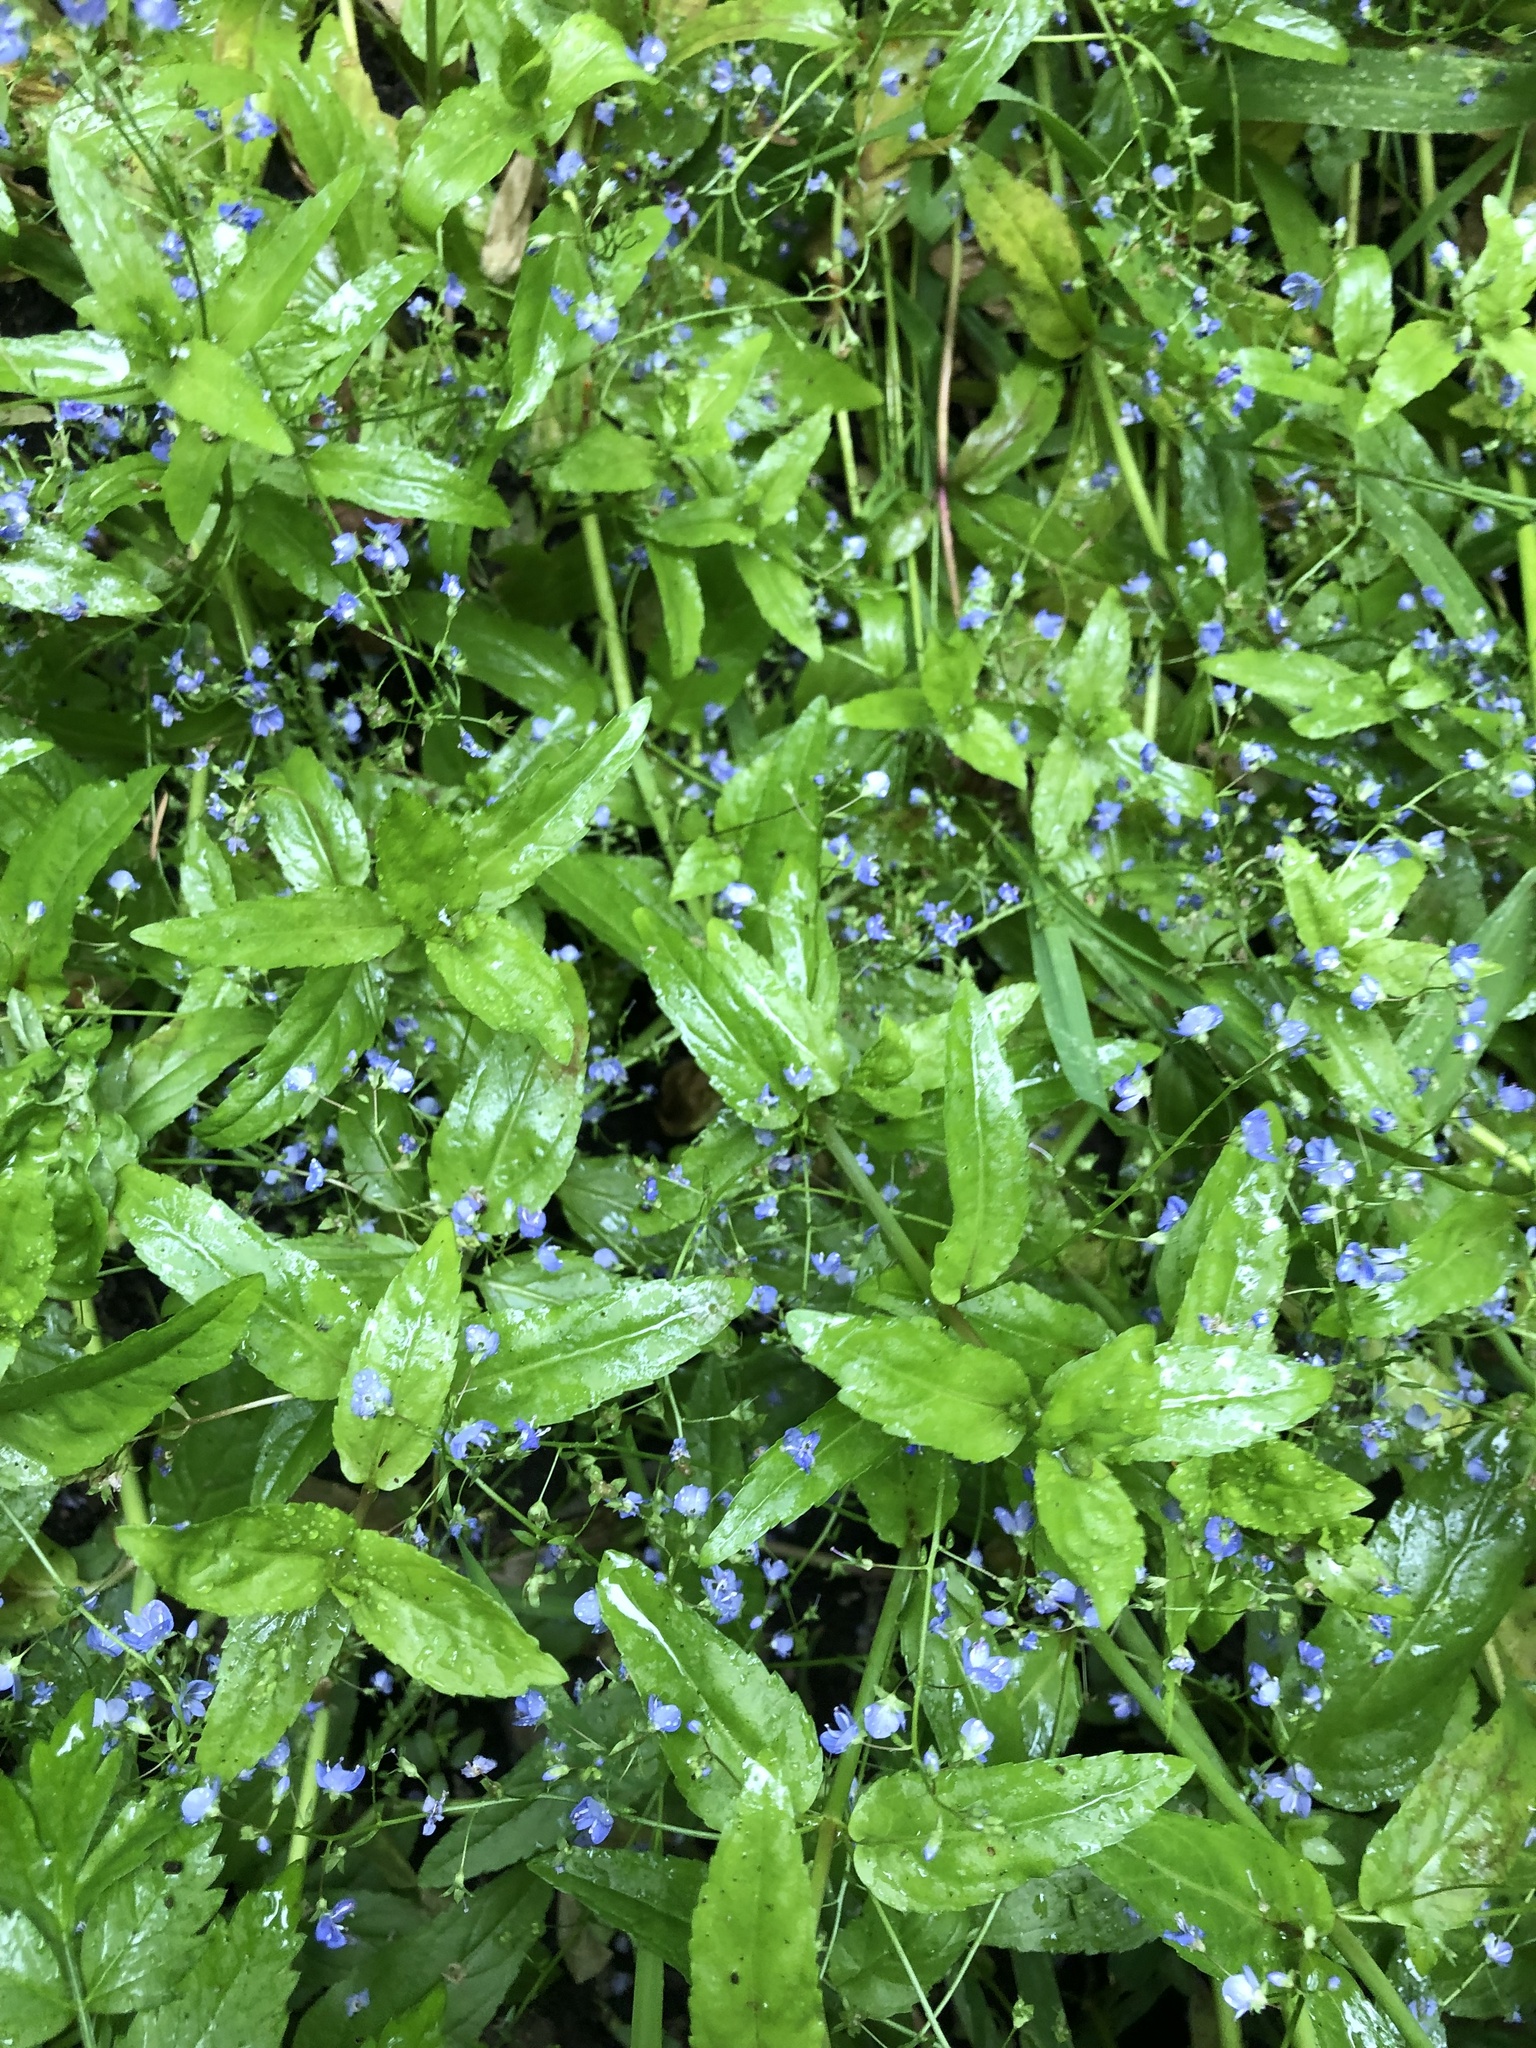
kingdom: Plantae
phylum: Tracheophyta
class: Magnoliopsida
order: Lamiales
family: Plantaginaceae
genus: Veronica
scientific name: Veronica americana
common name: American brooklime
